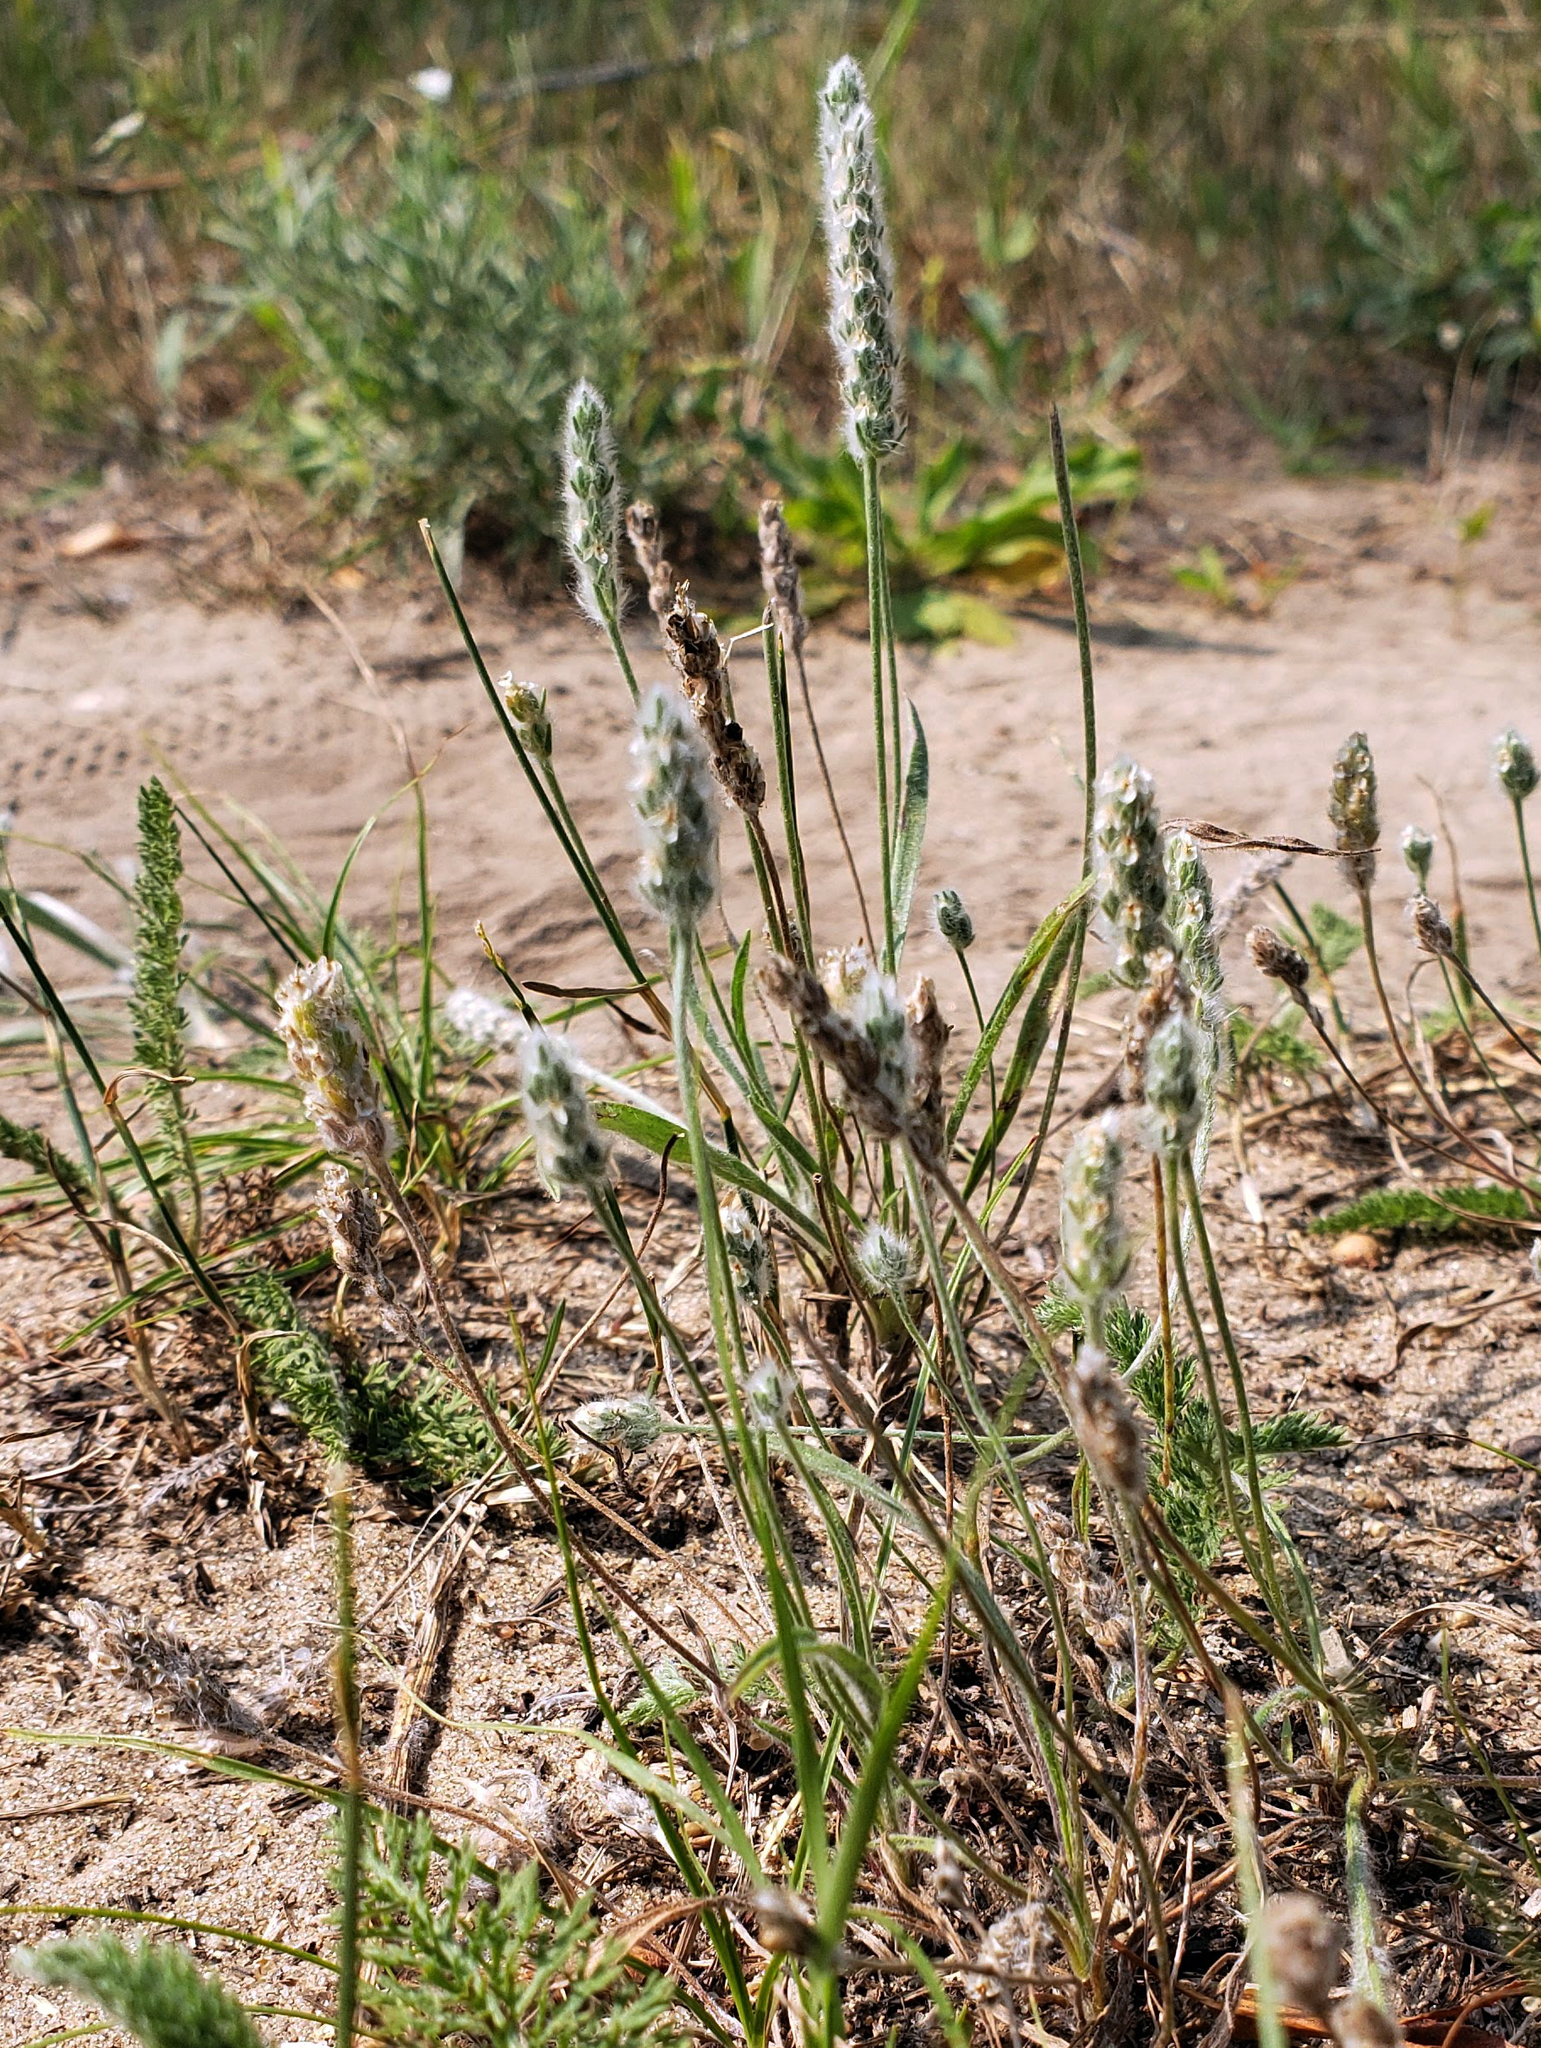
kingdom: Plantae
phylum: Tracheophyta
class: Magnoliopsida
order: Lamiales
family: Plantaginaceae
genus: Plantago
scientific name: Plantago patagonica
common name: Patagonia indian-wheat
